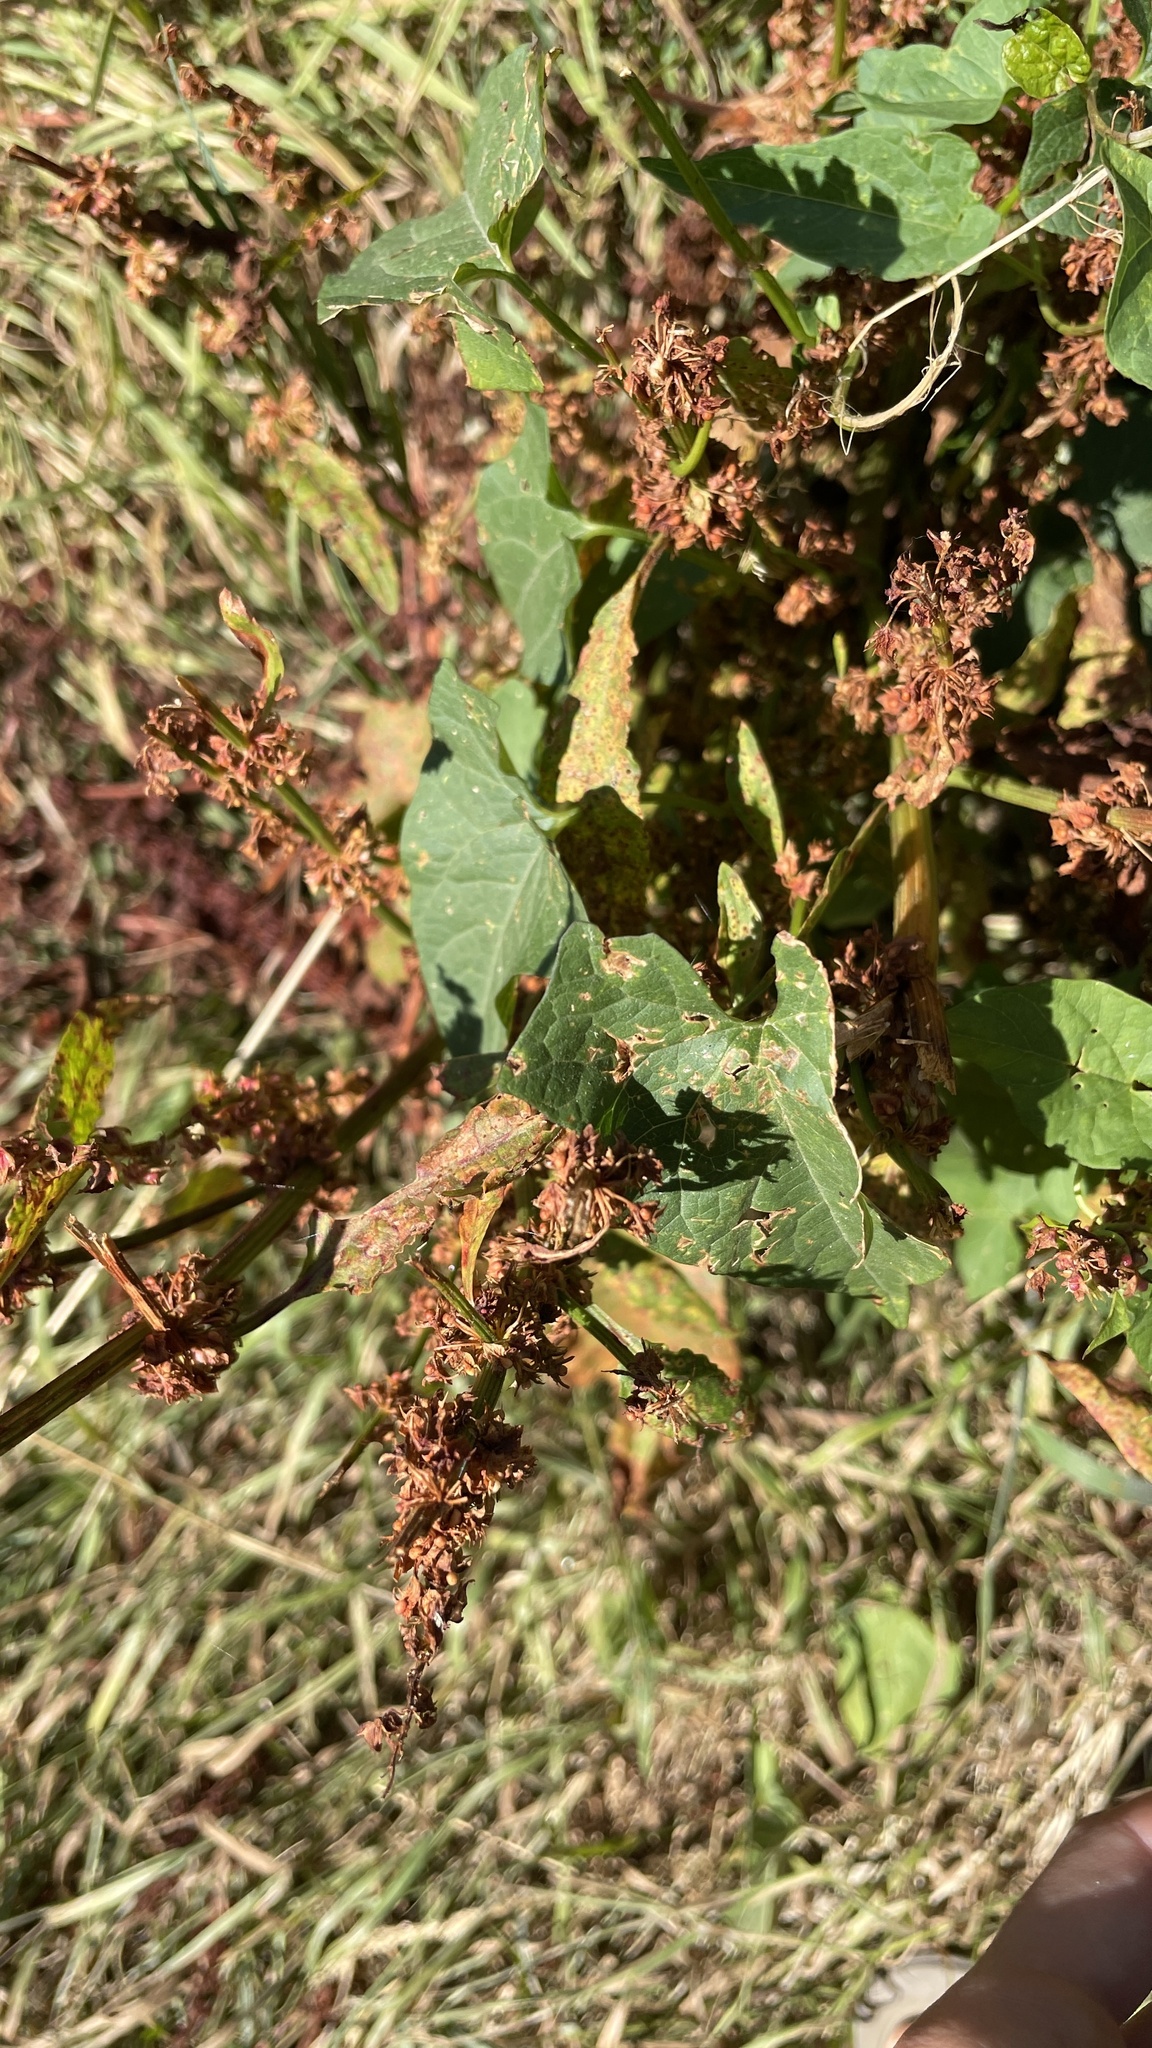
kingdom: Plantae
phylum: Tracheophyta
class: Magnoliopsida
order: Solanales
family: Convolvulaceae
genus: Calystegia
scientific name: Calystegia silvatica
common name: Large bindweed
